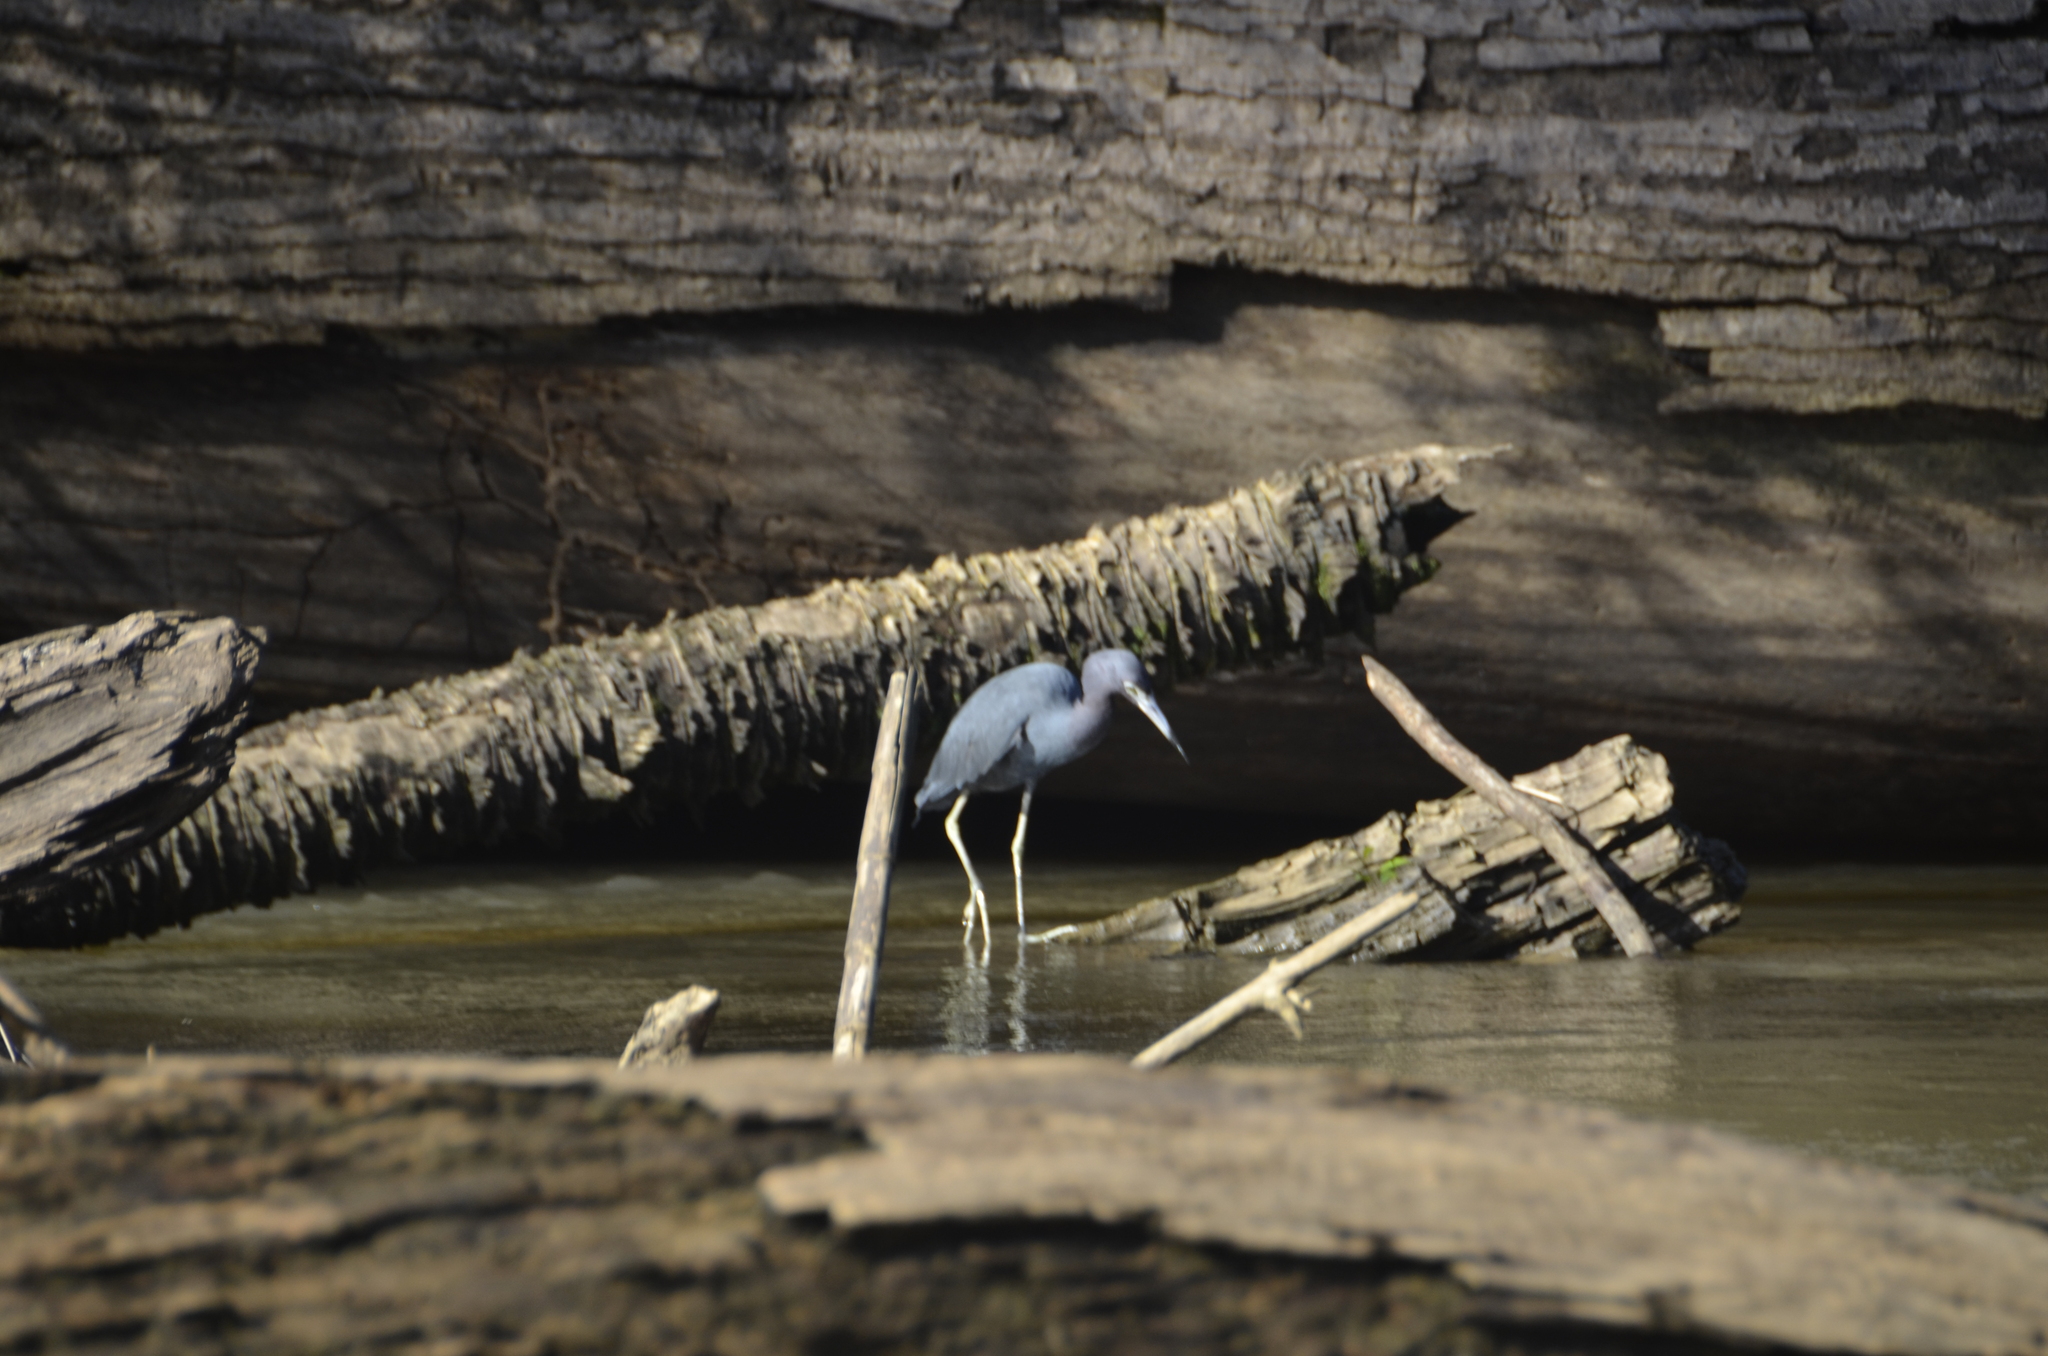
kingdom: Animalia
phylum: Chordata
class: Aves
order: Pelecaniformes
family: Ardeidae
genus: Egretta
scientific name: Egretta caerulea
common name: Little blue heron
